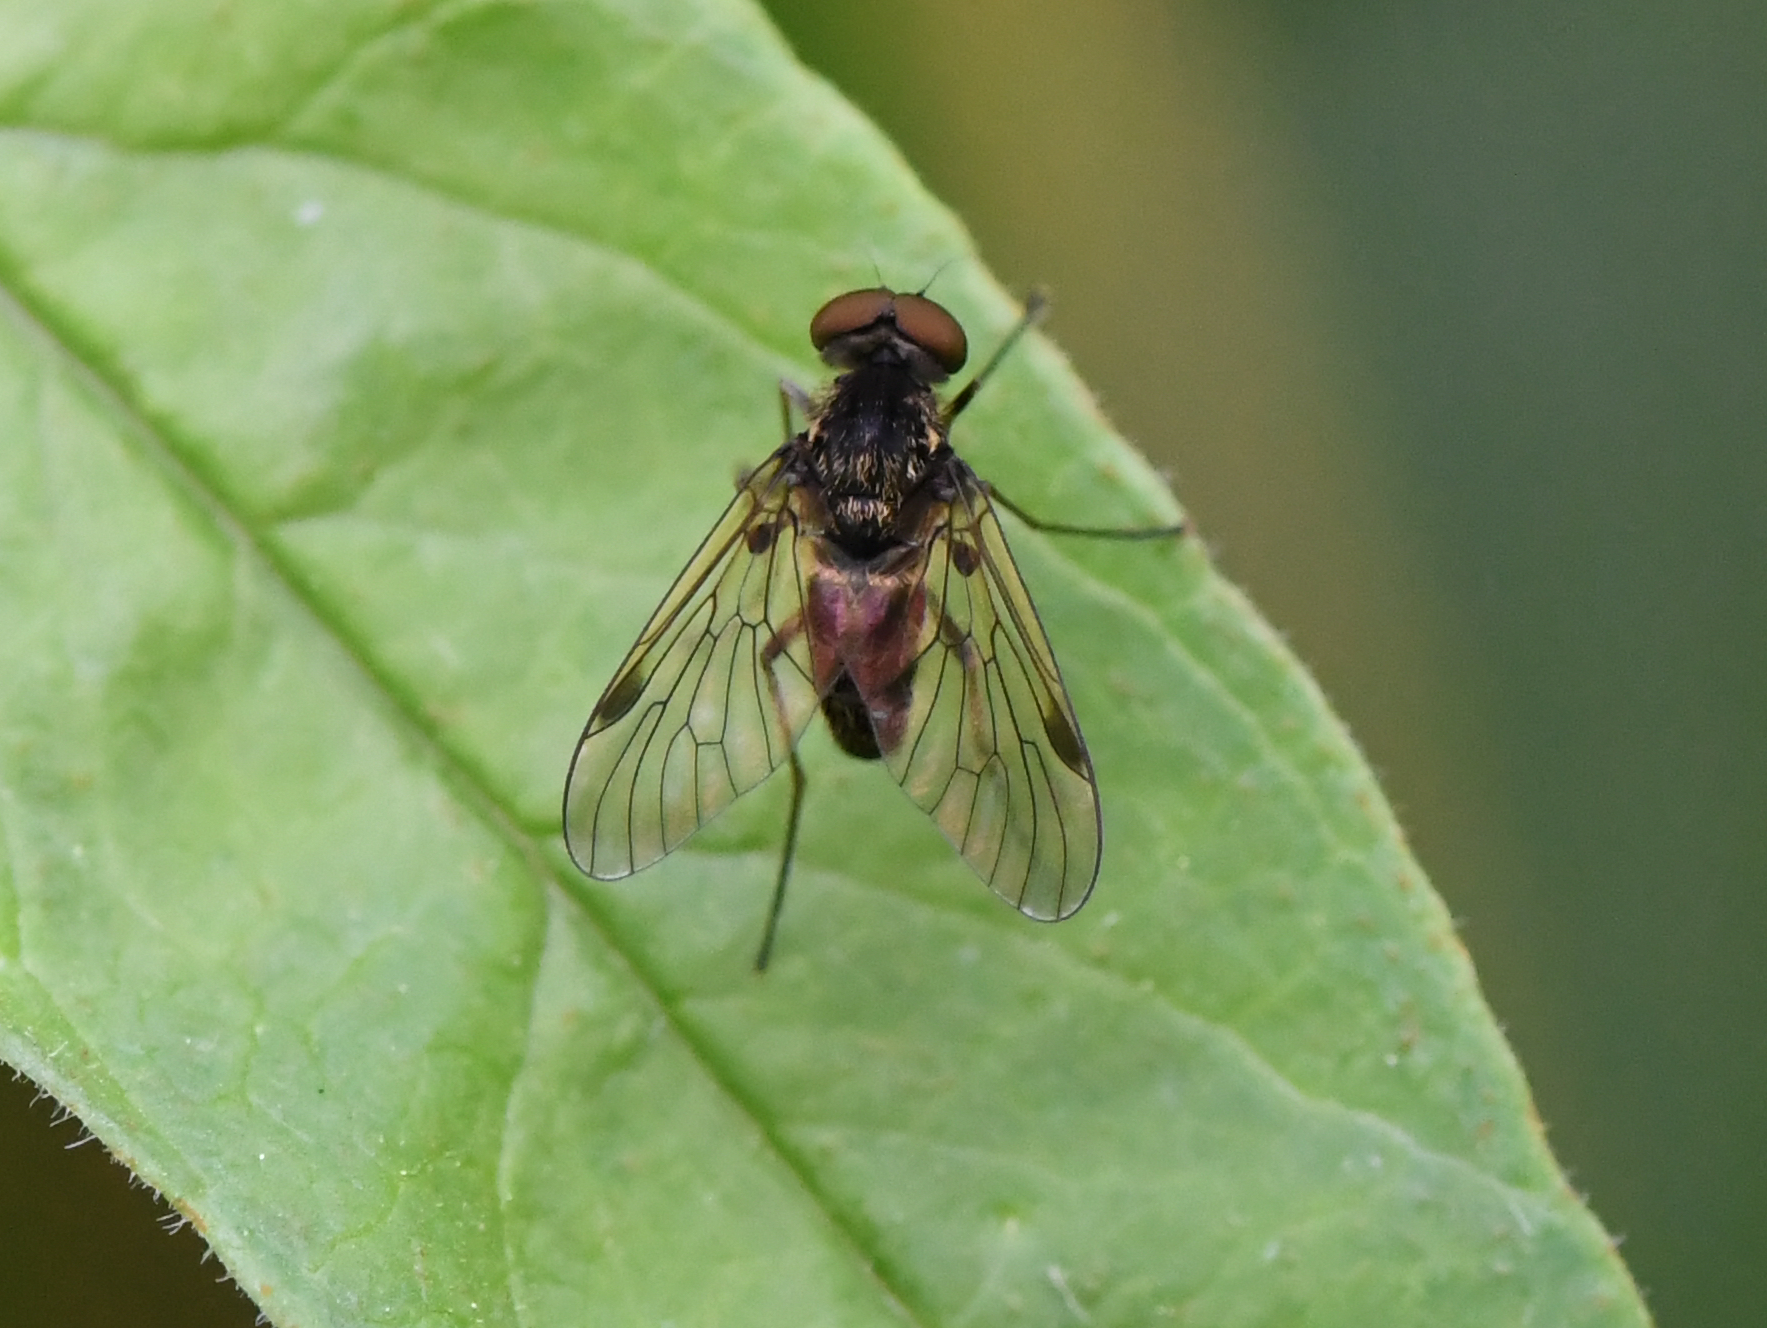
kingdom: Animalia
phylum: Arthropoda
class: Insecta
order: Diptera
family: Rhagionidae
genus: Chrysopilus
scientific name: Chrysopilus cristatus
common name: Black snipefly
